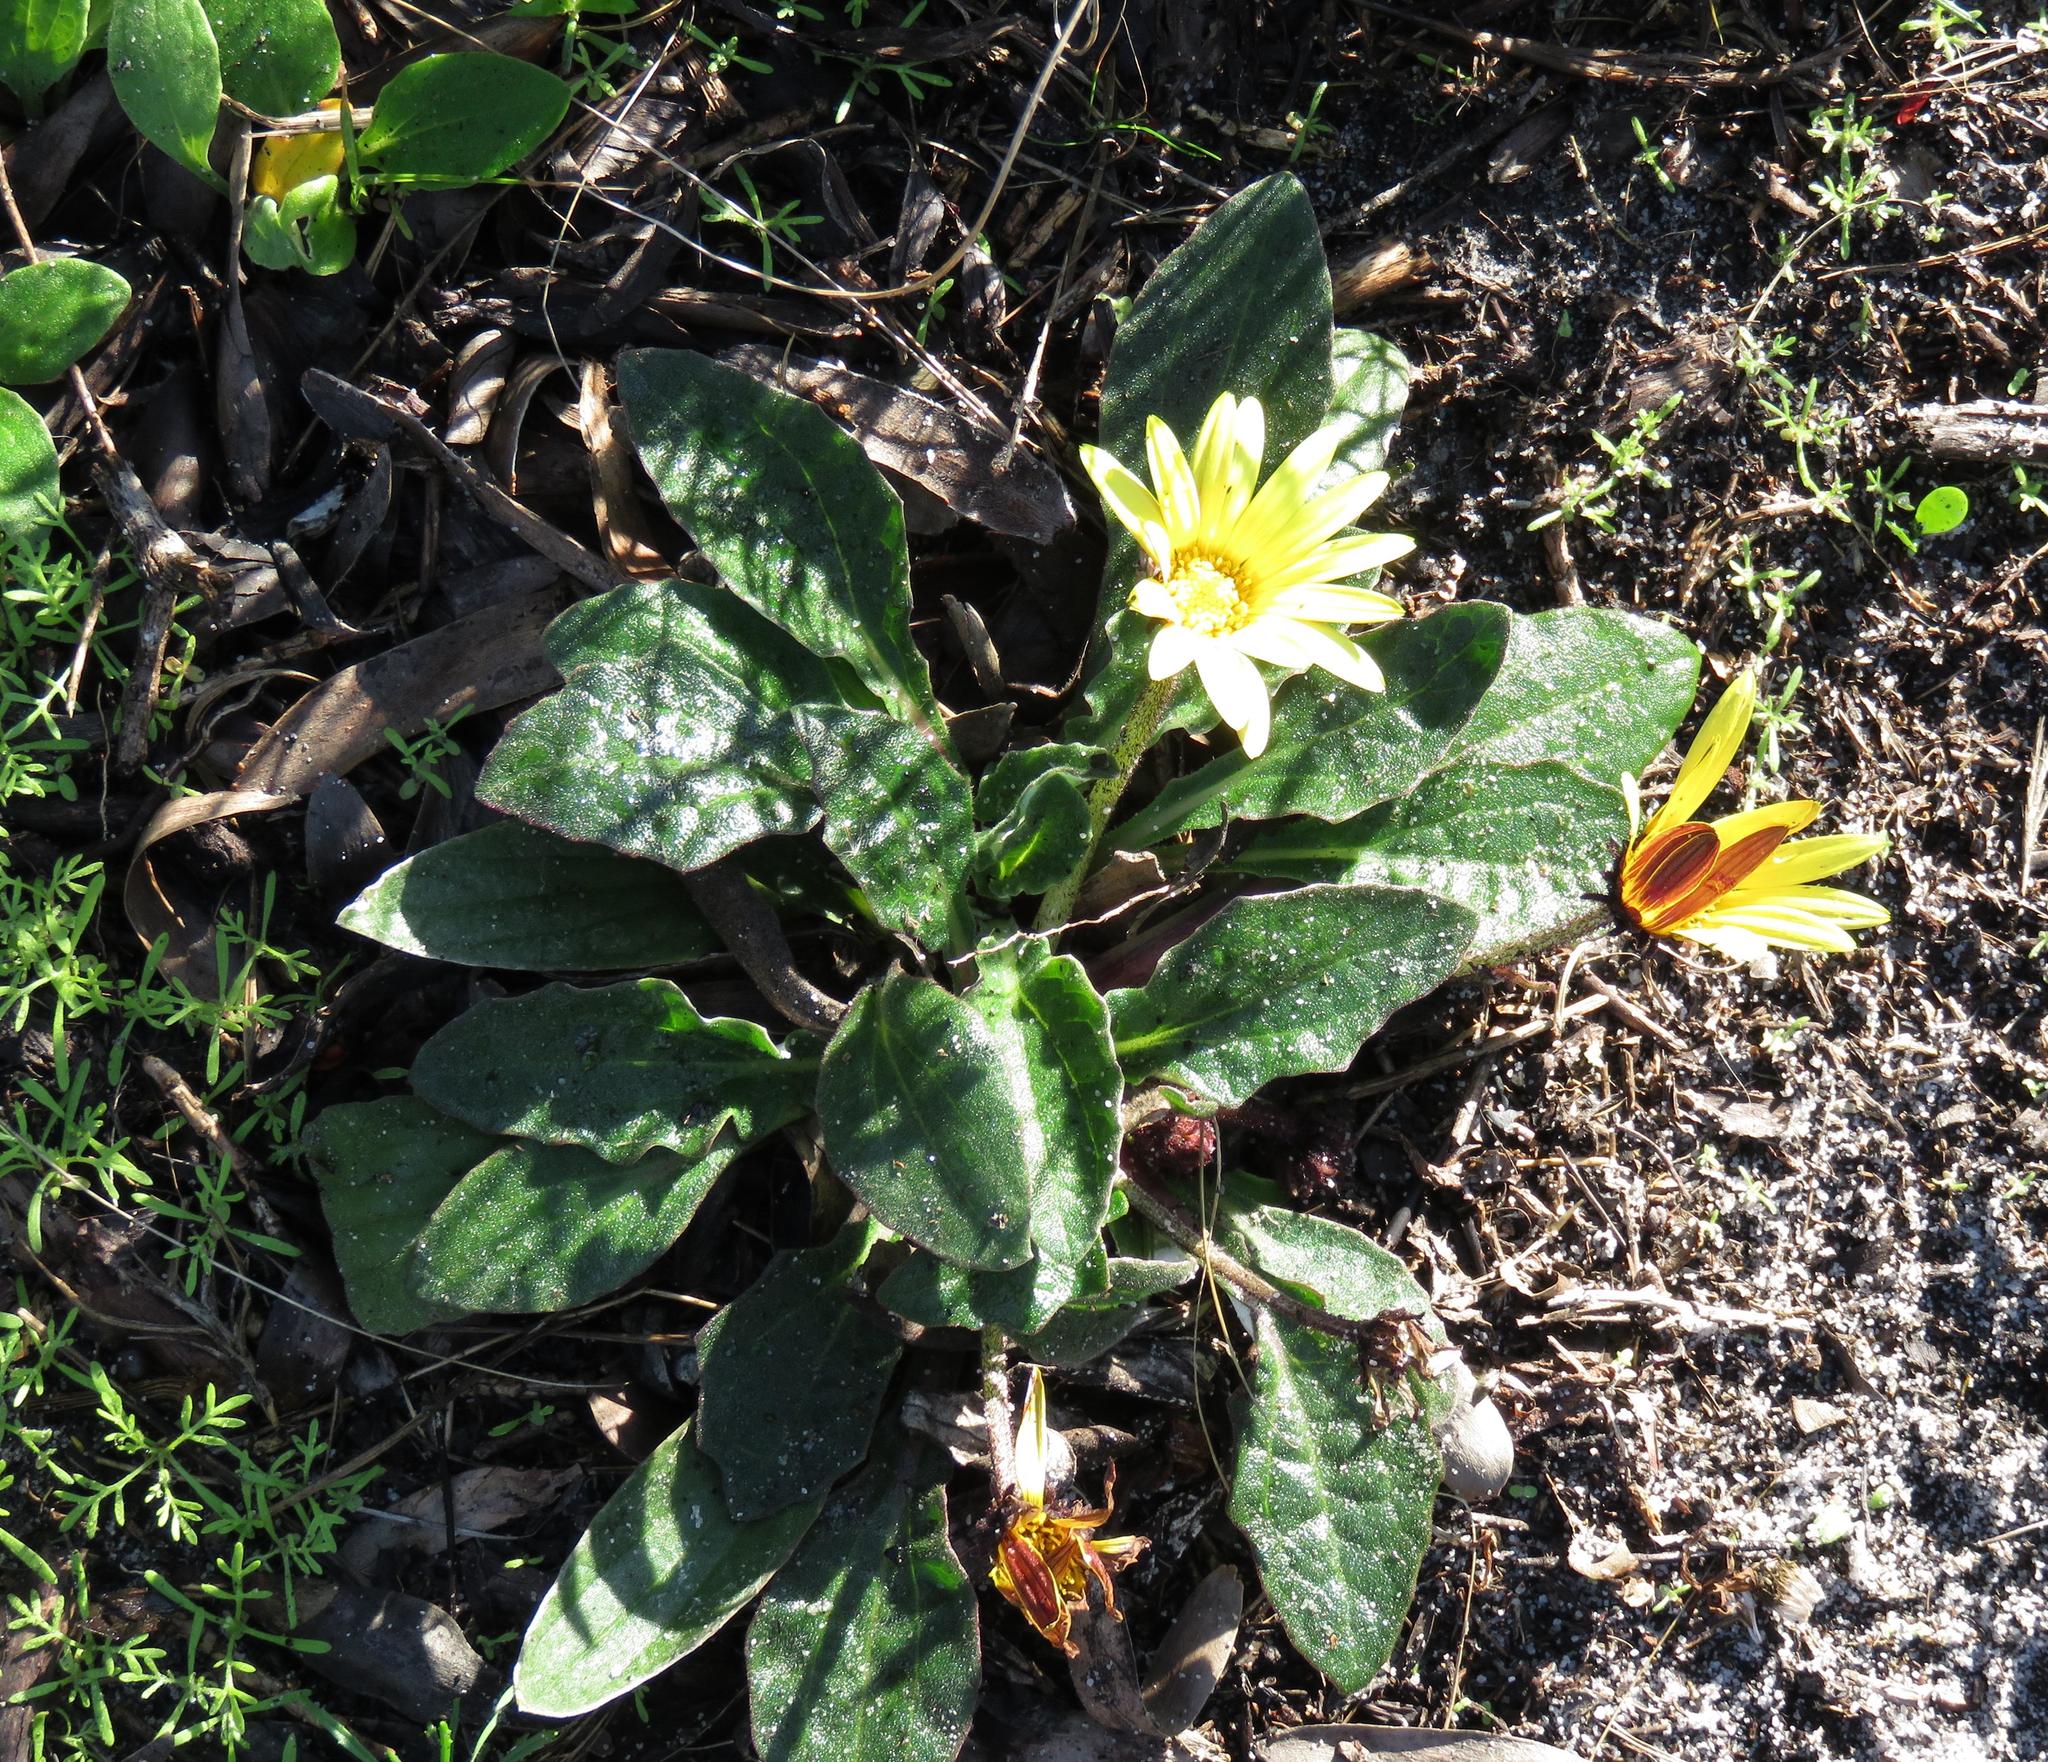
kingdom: Plantae
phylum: Tracheophyta
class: Magnoliopsida
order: Asterales
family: Asteraceae
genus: Haplocarpha
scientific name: Haplocarpha lanata
